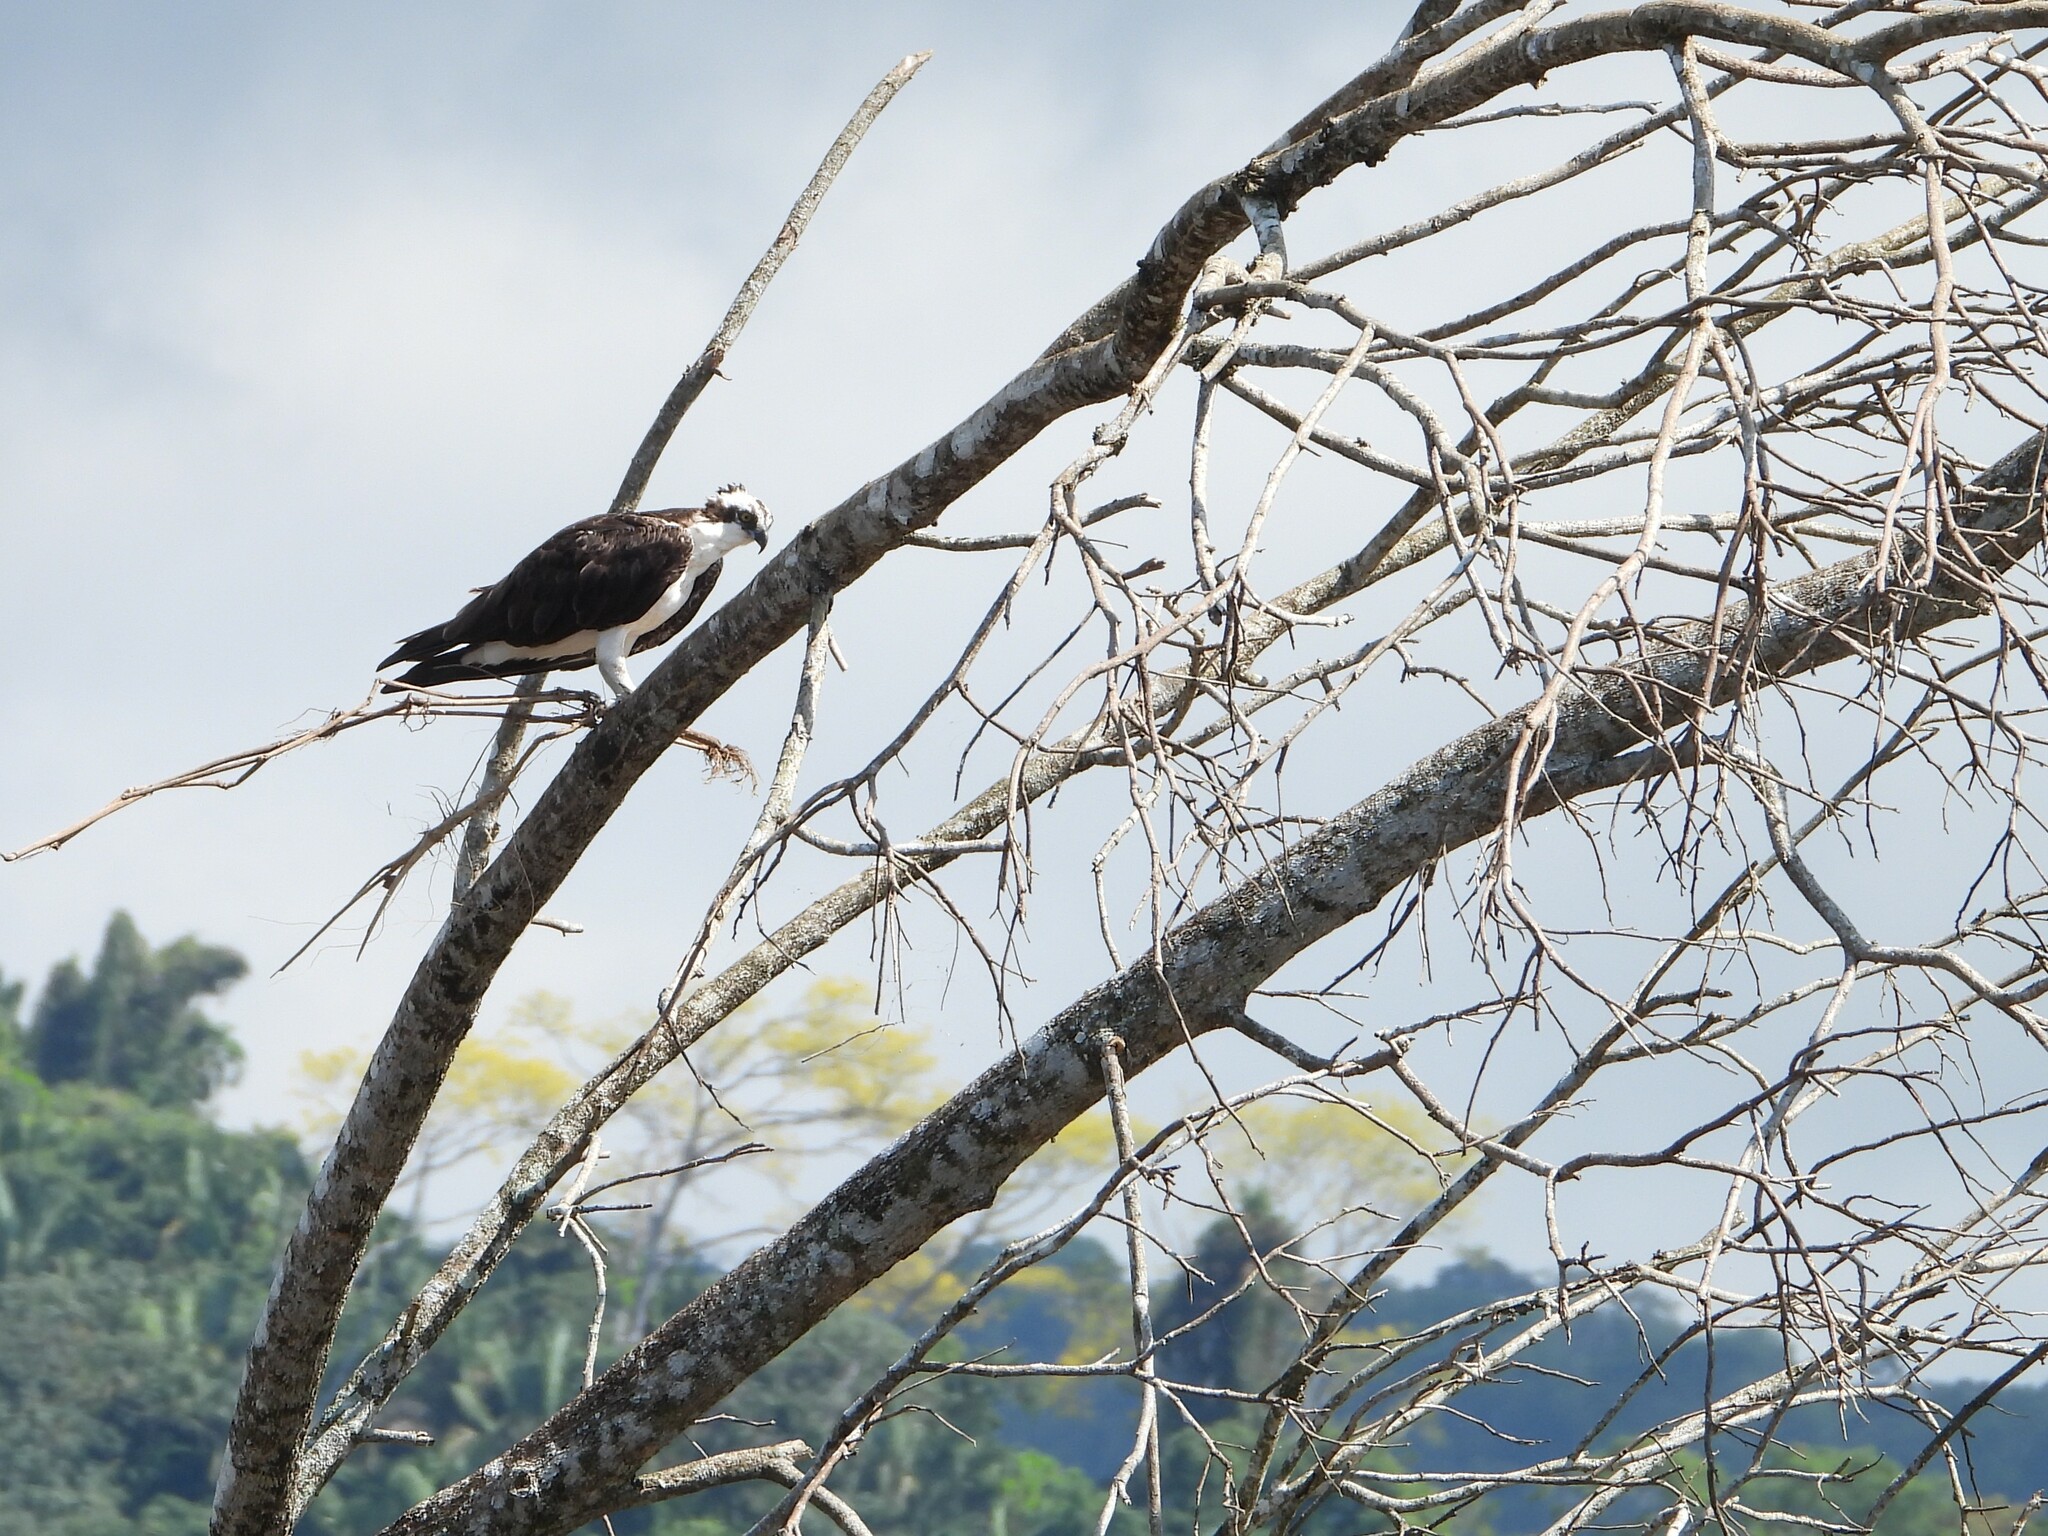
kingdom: Animalia
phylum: Chordata
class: Aves
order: Accipitriformes
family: Pandionidae
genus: Pandion
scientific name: Pandion haliaetus
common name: Osprey
